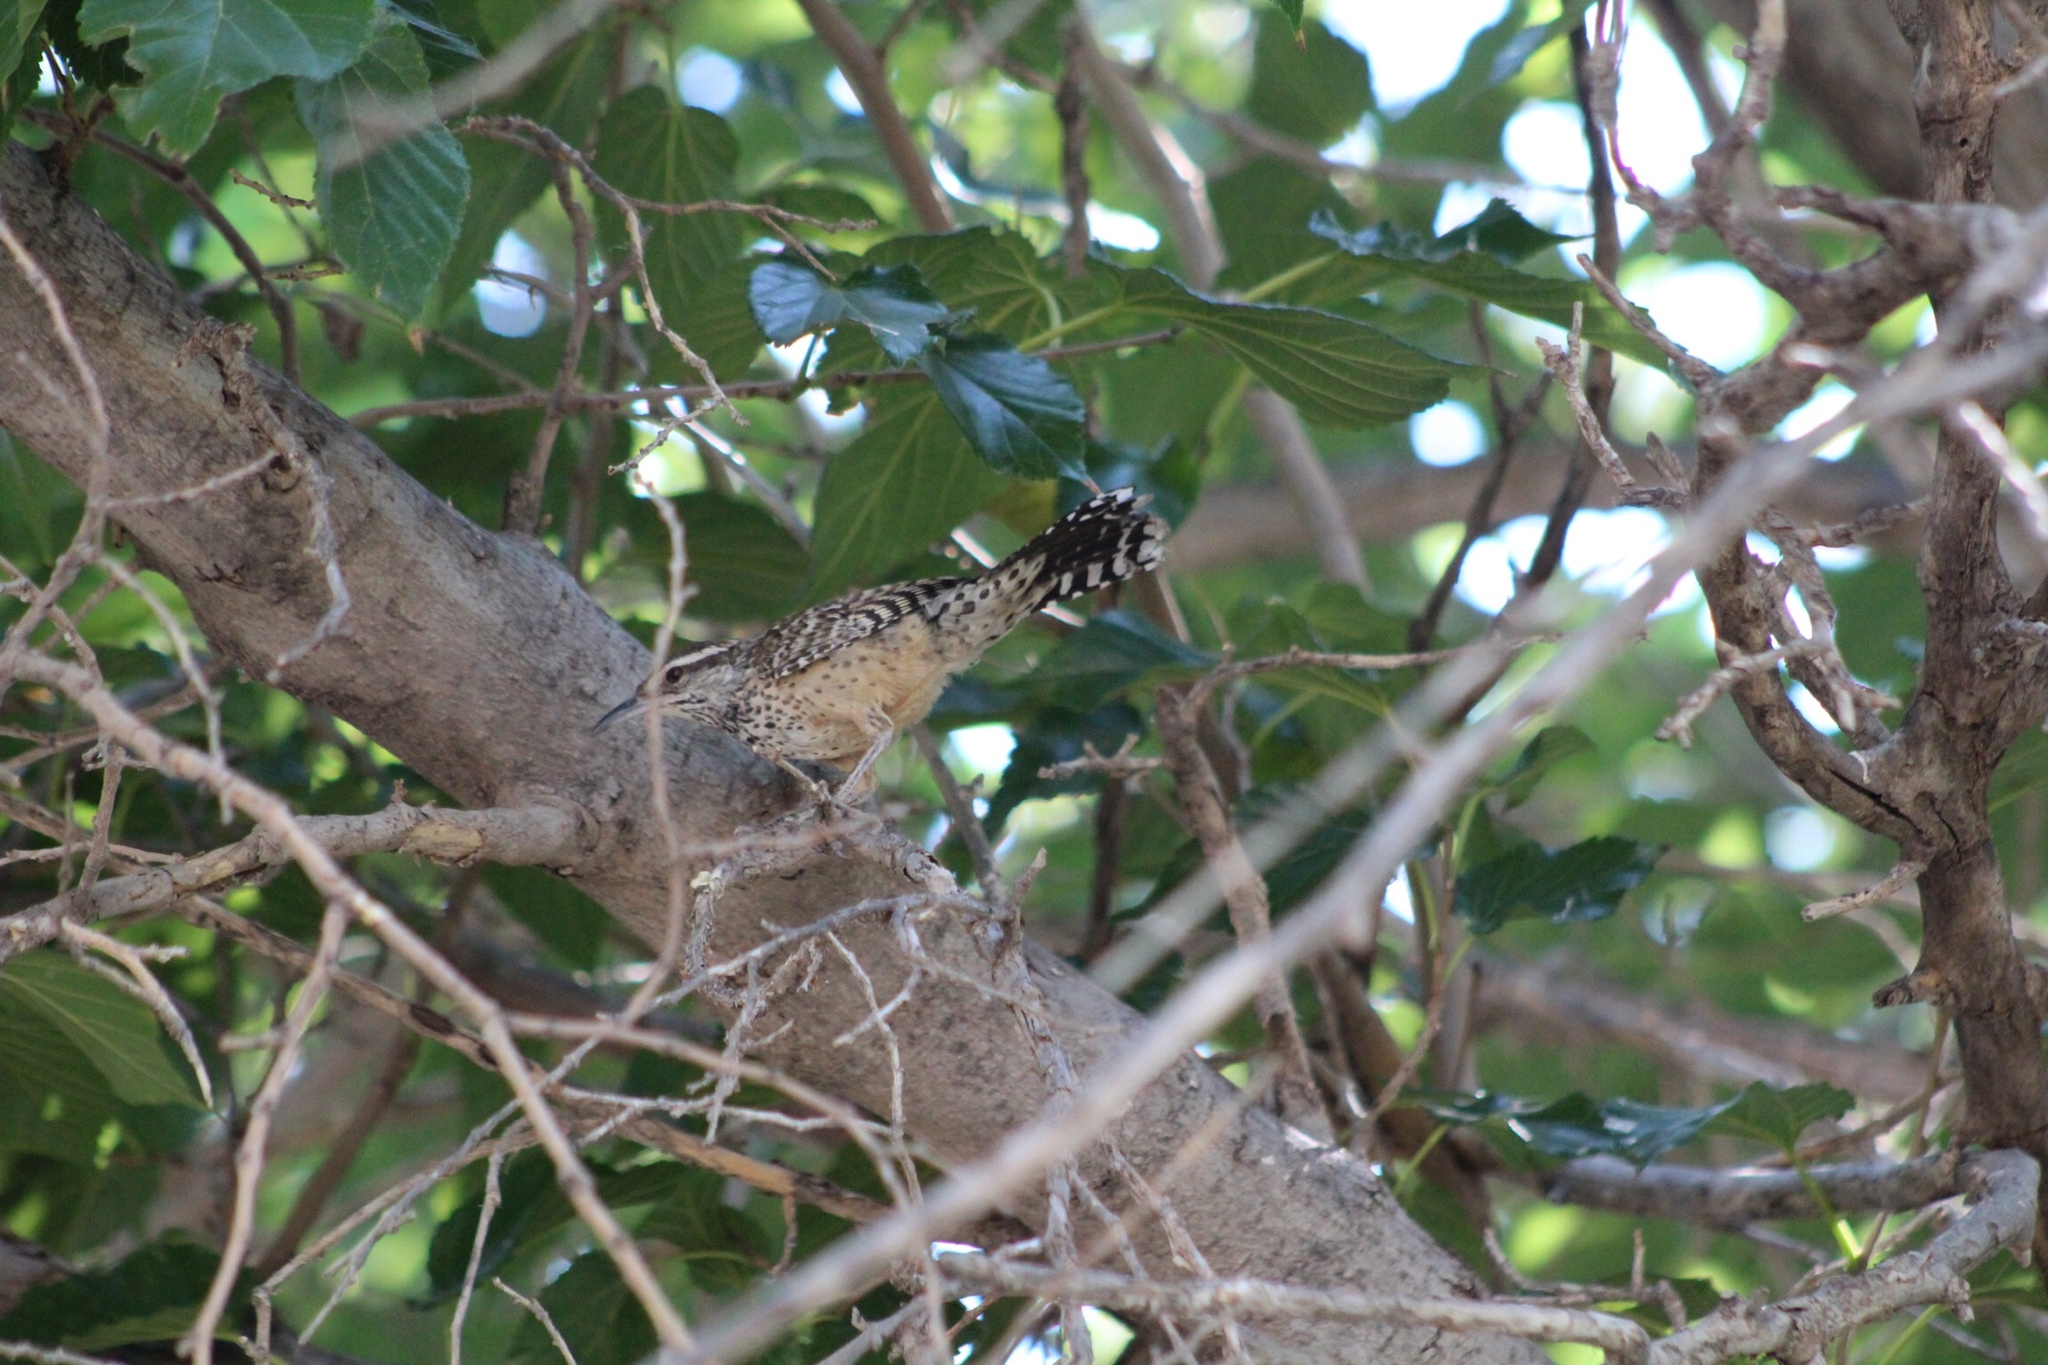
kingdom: Animalia
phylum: Chordata
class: Aves
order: Passeriformes
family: Troglodytidae
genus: Campylorhynchus
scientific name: Campylorhynchus brunneicapillus
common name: Cactus wren
